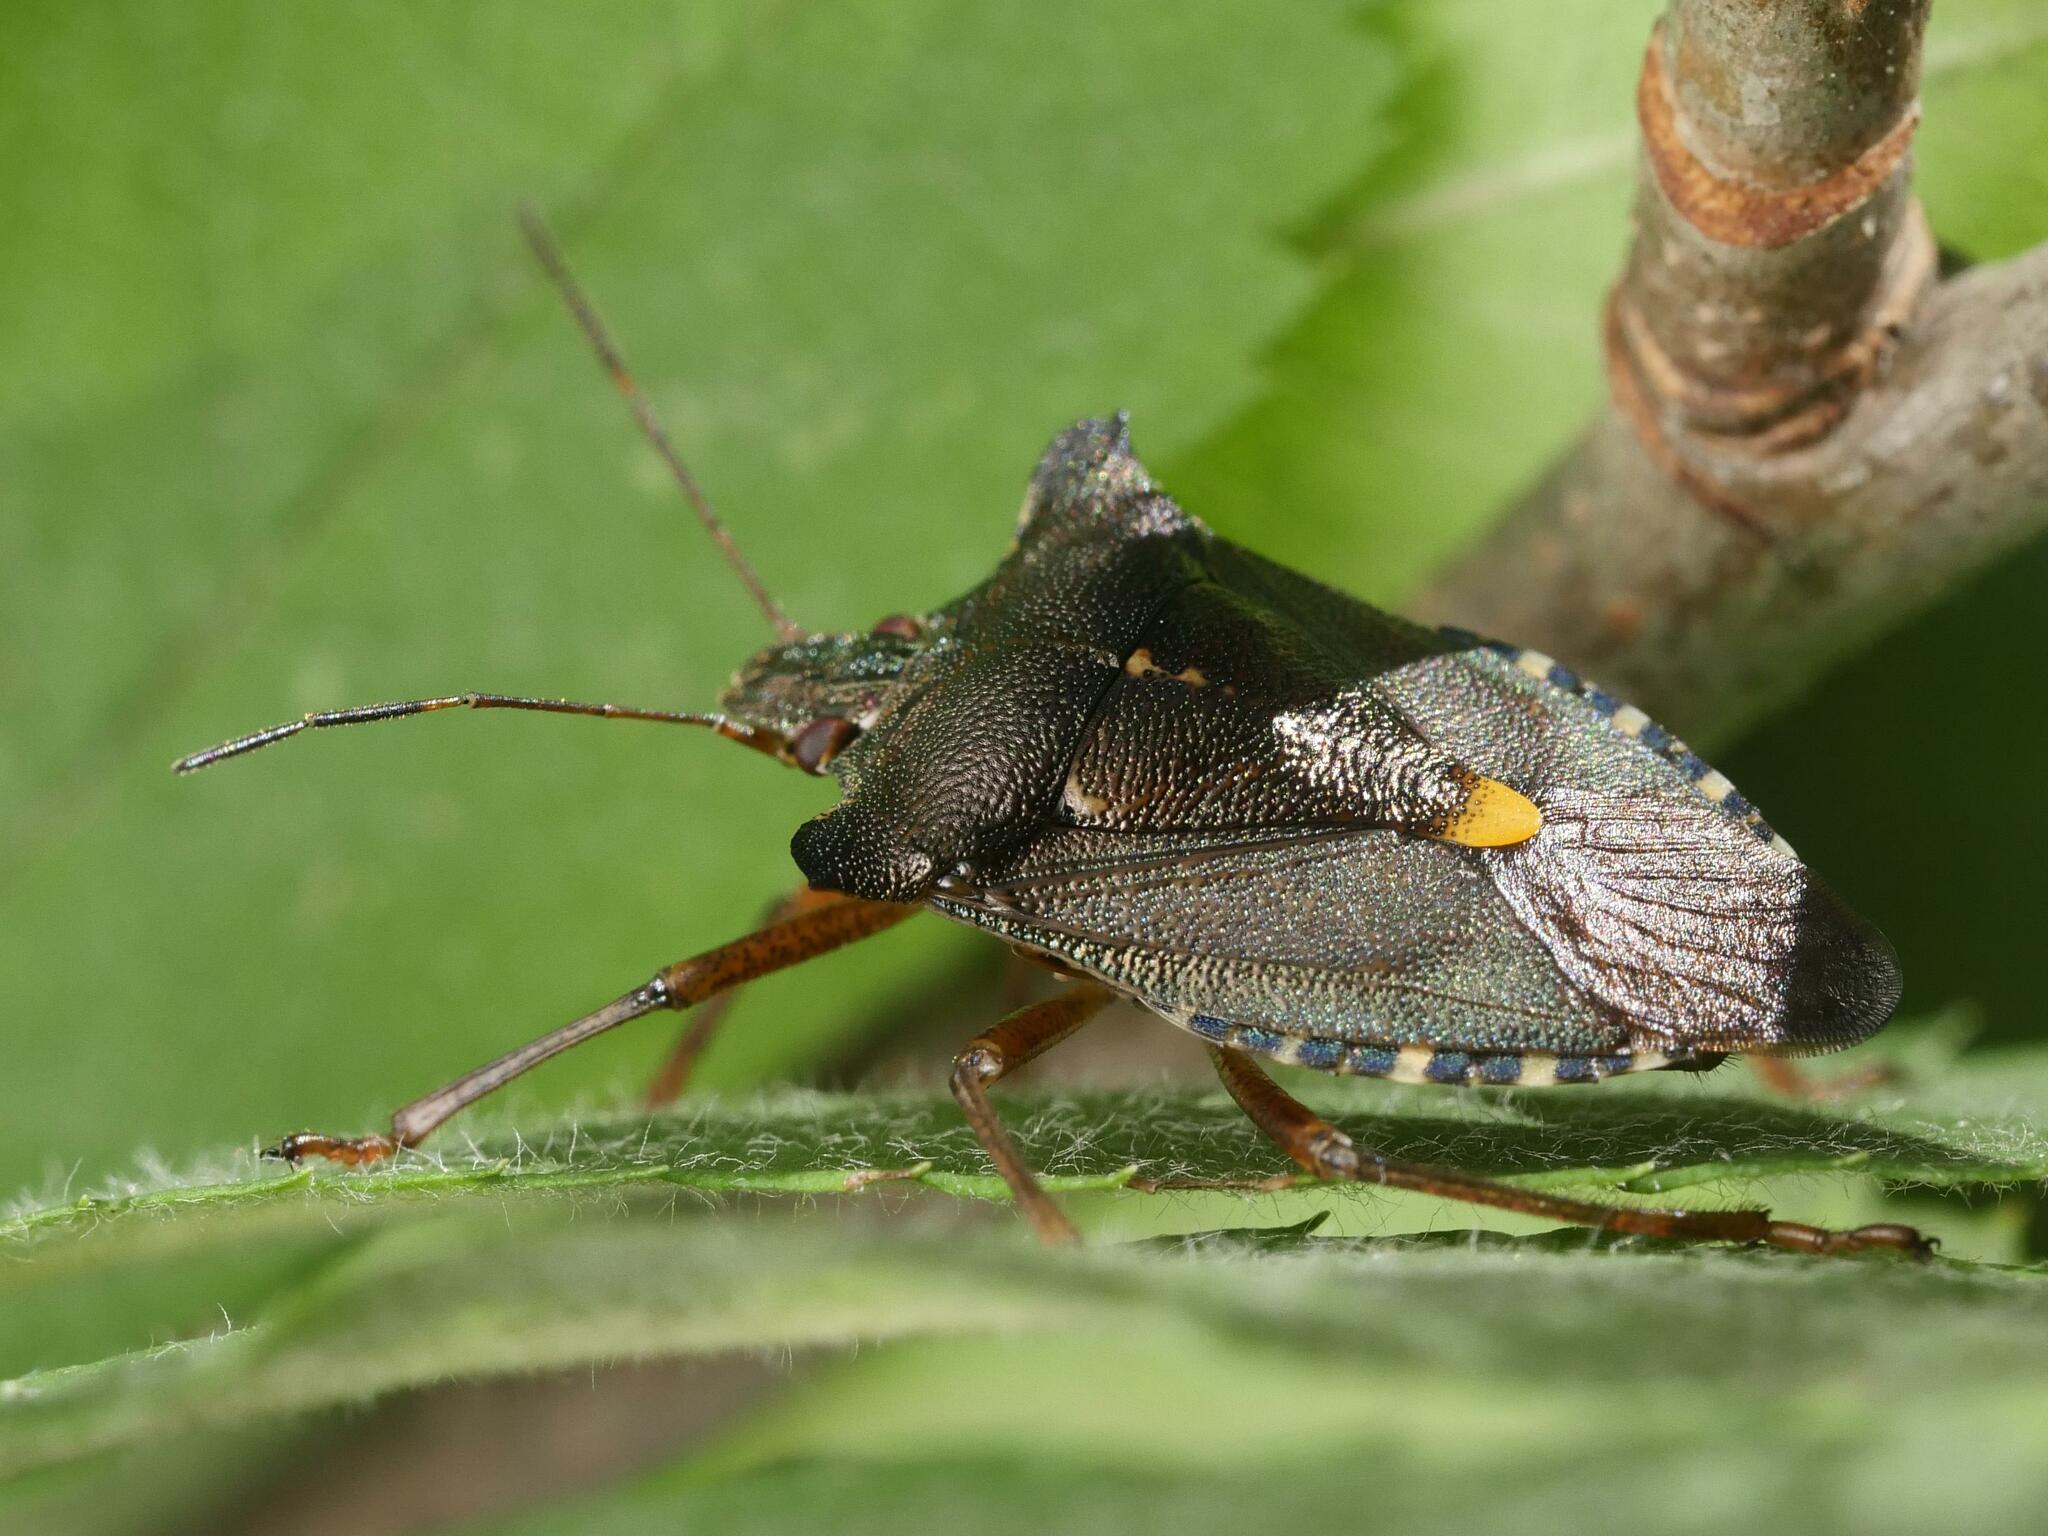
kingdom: Animalia
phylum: Arthropoda
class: Insecta
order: Hemiptera
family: Pentatomidae
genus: Pentatoma
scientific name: Pentatoma rufipes
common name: Forest bug
